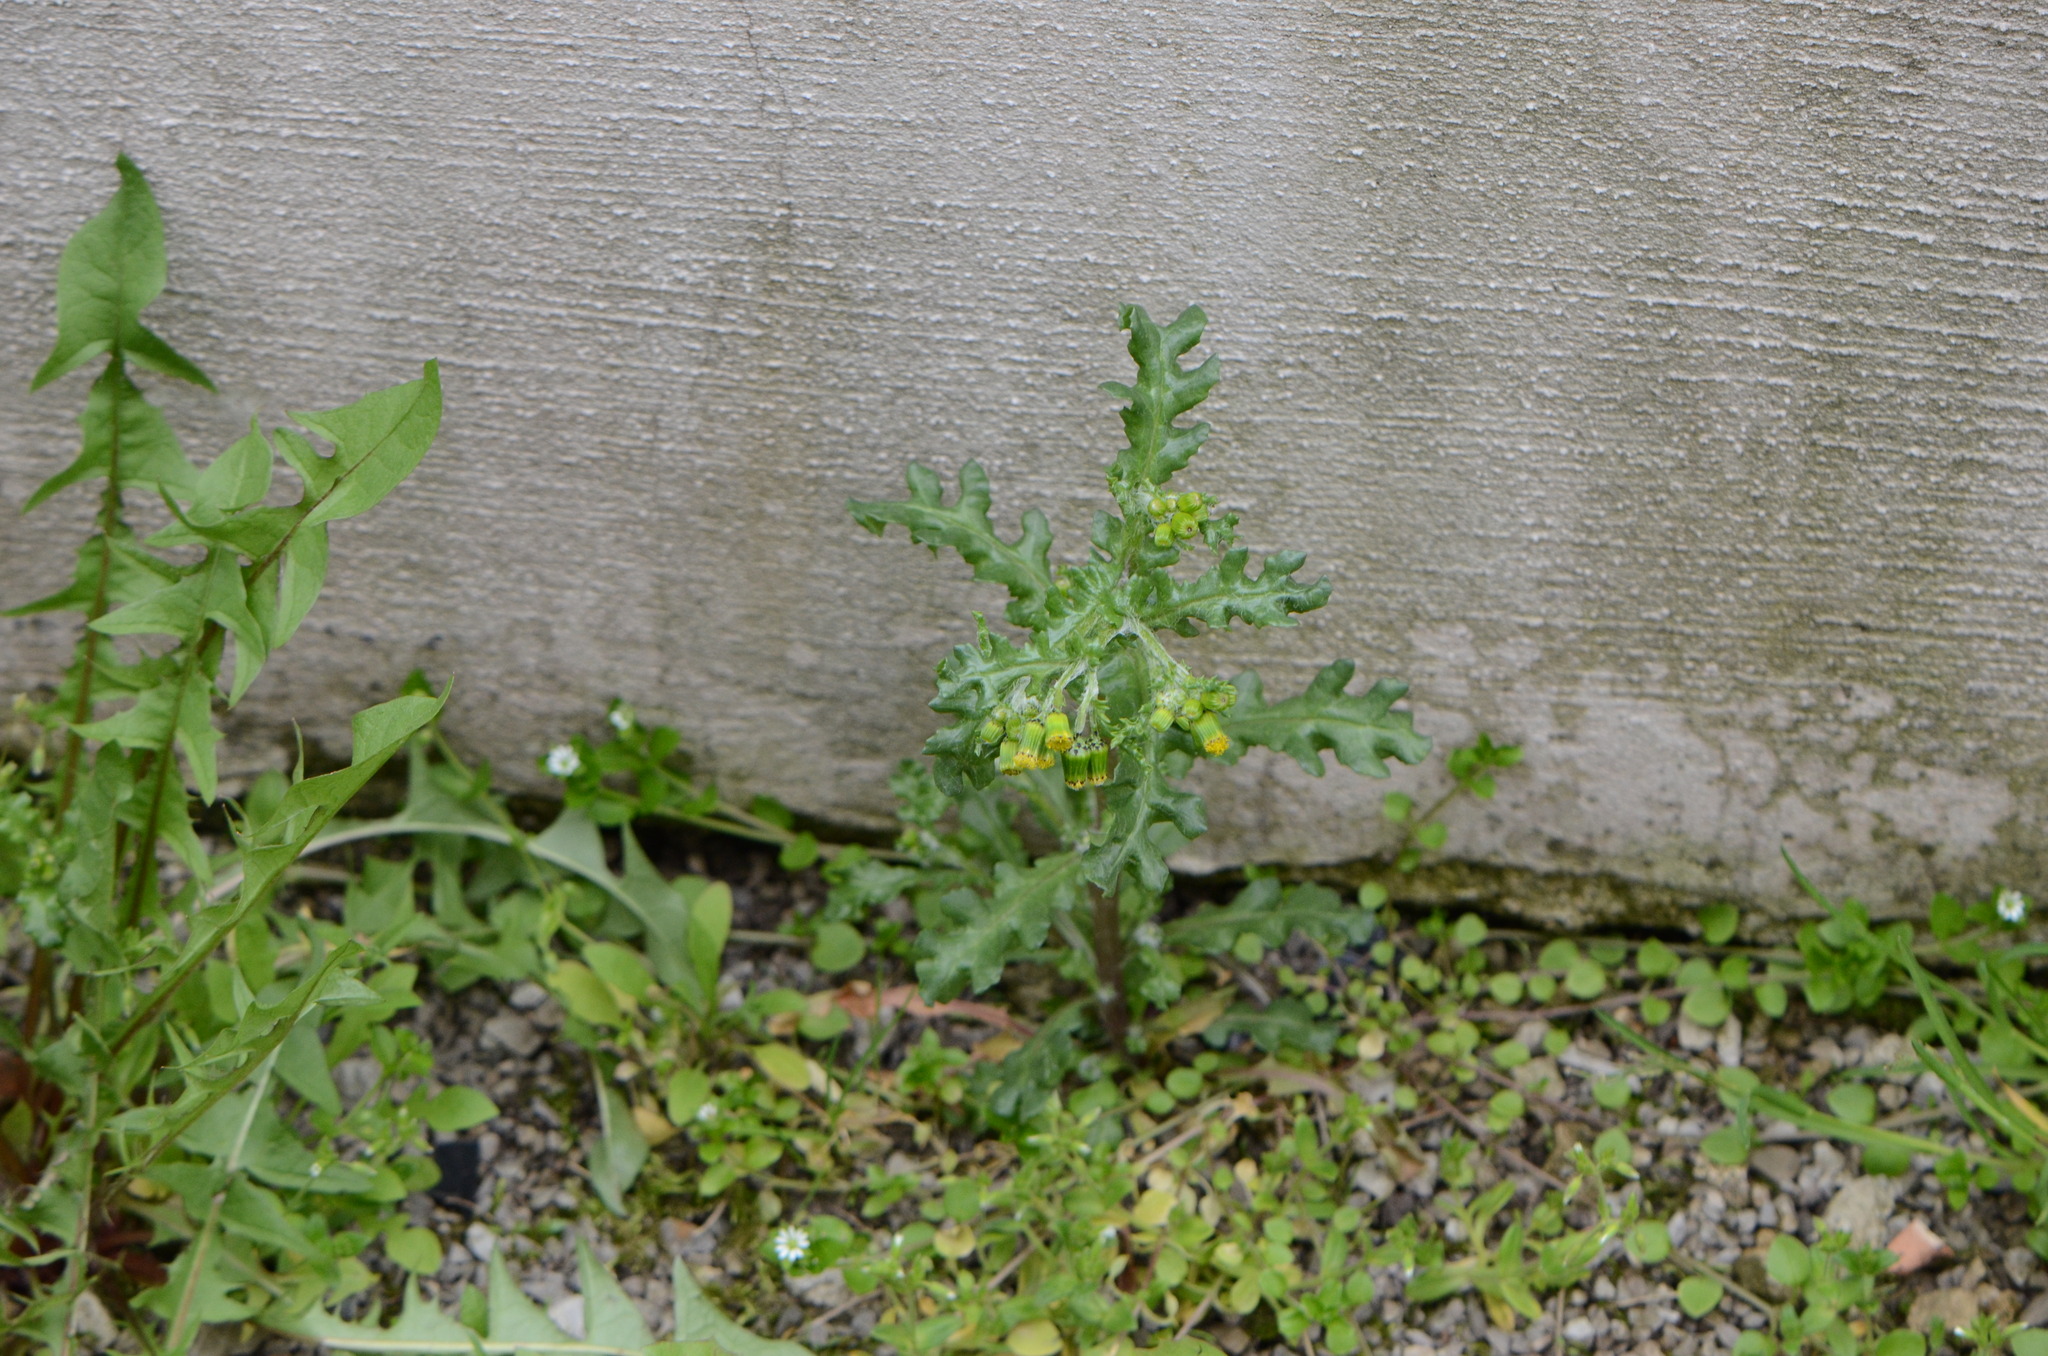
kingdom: Plantae
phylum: Tracheophyta
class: Magnoliopsida
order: Asterales
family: Asteraceae
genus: Senecio
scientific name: Senecio vulgaris
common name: Old-man-in-the-spring
